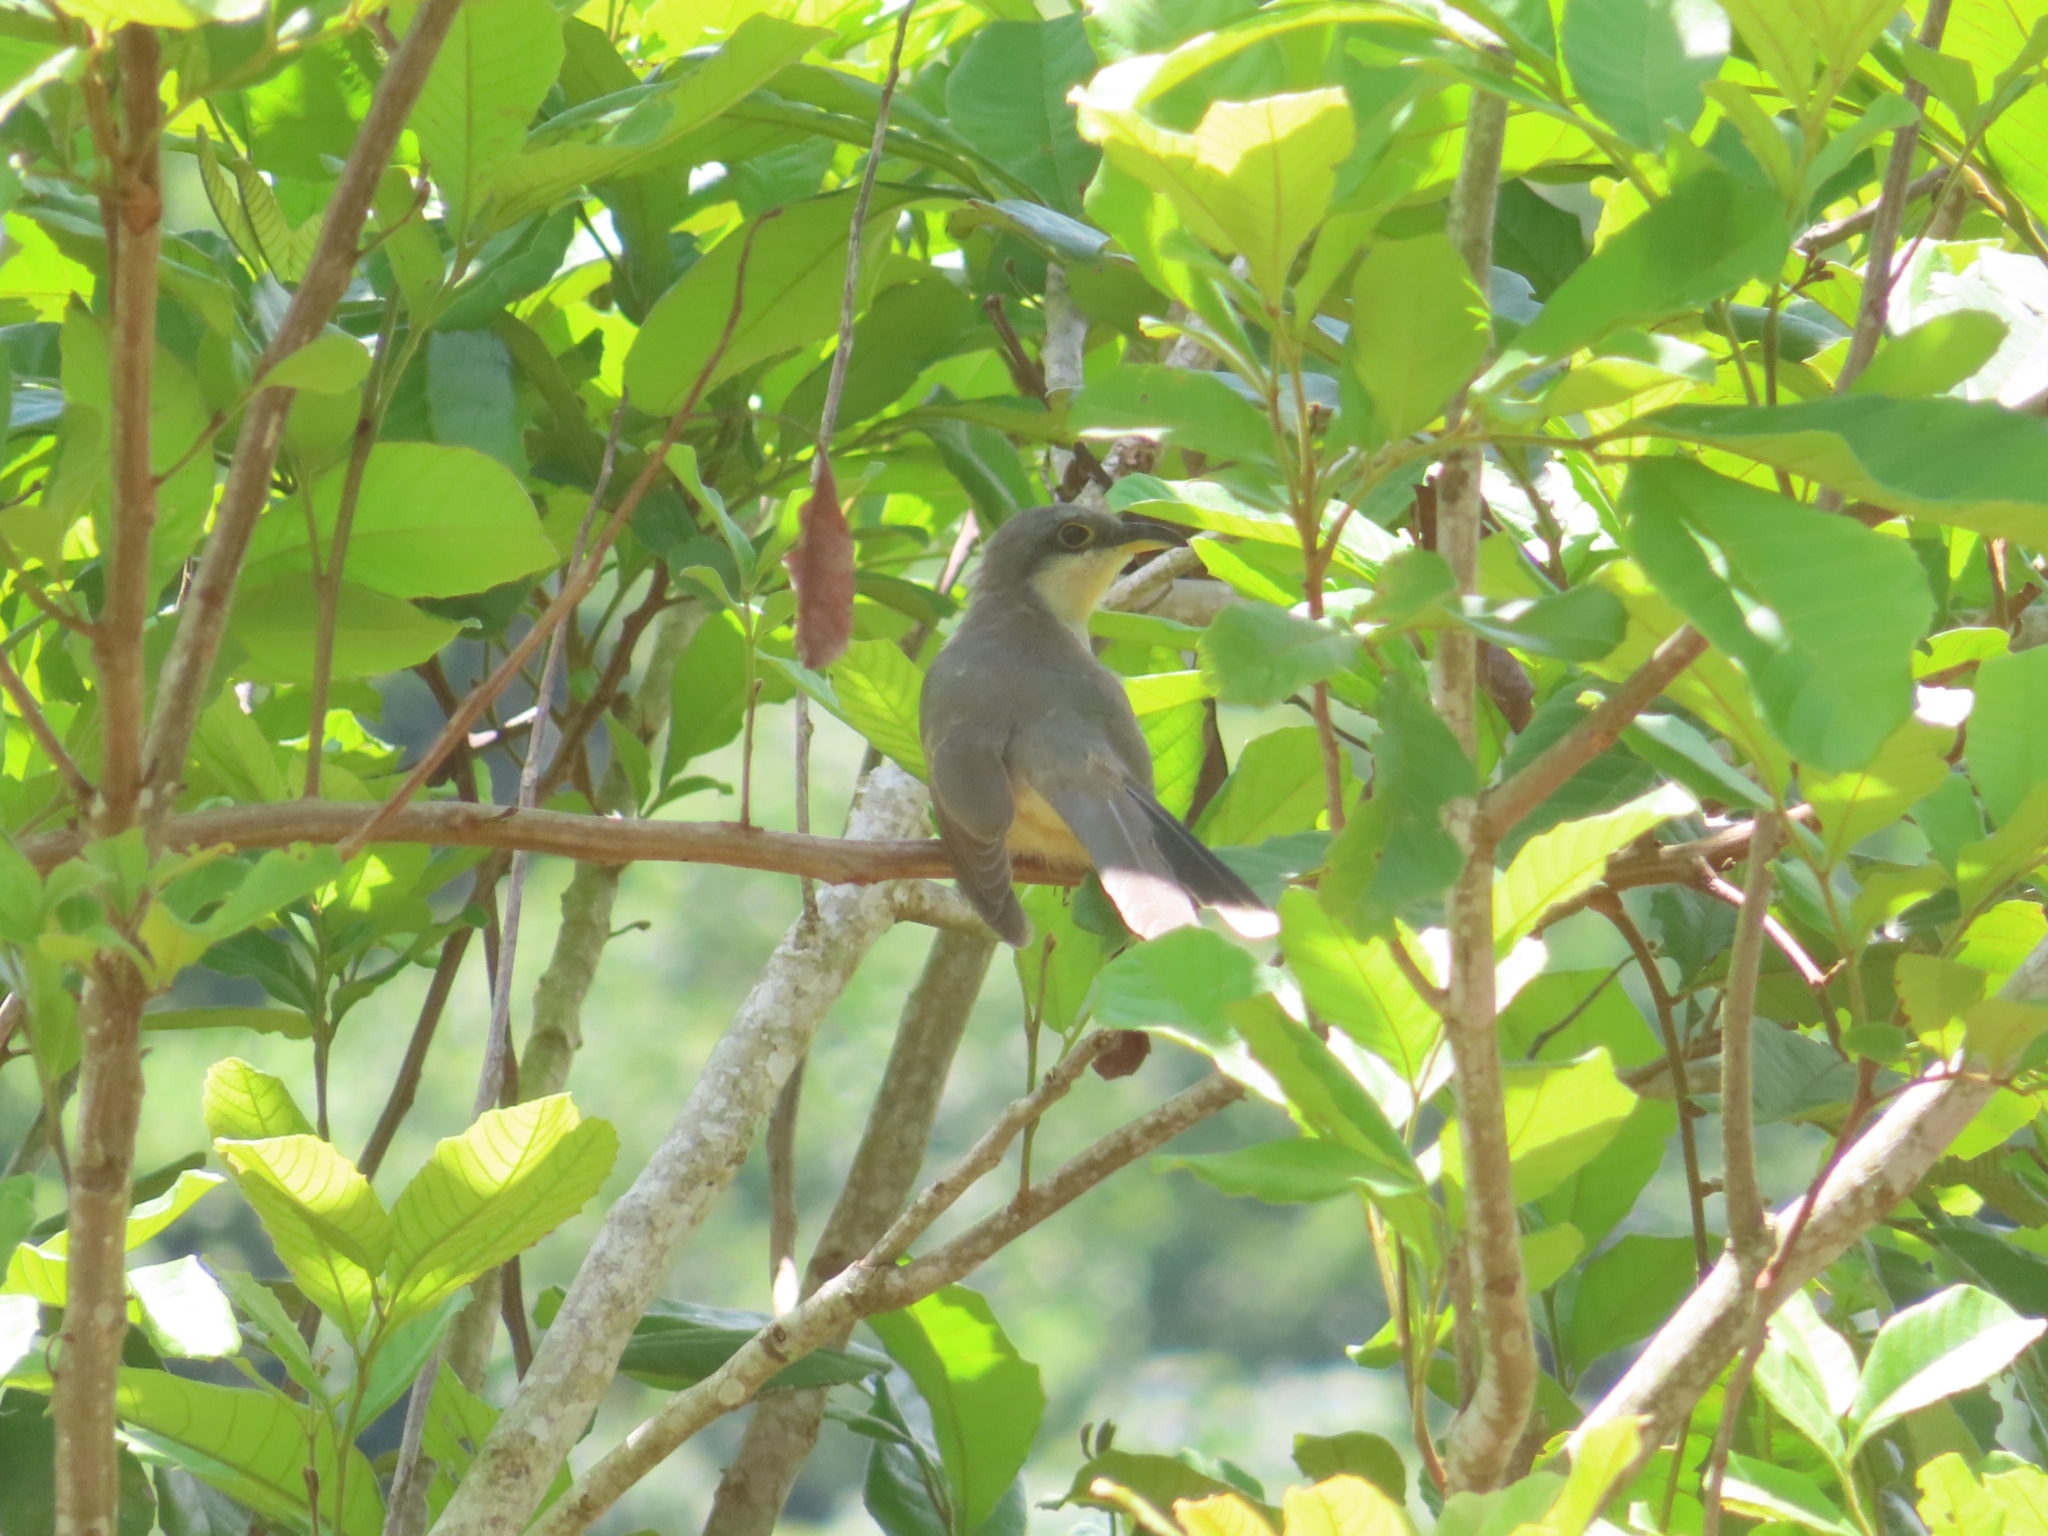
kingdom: Animalia
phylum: Chordata
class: Aves
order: Cuculiformes
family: Cuculidae
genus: Coccyzus
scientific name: Coccyzus minor
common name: Mangrove cuckoo
